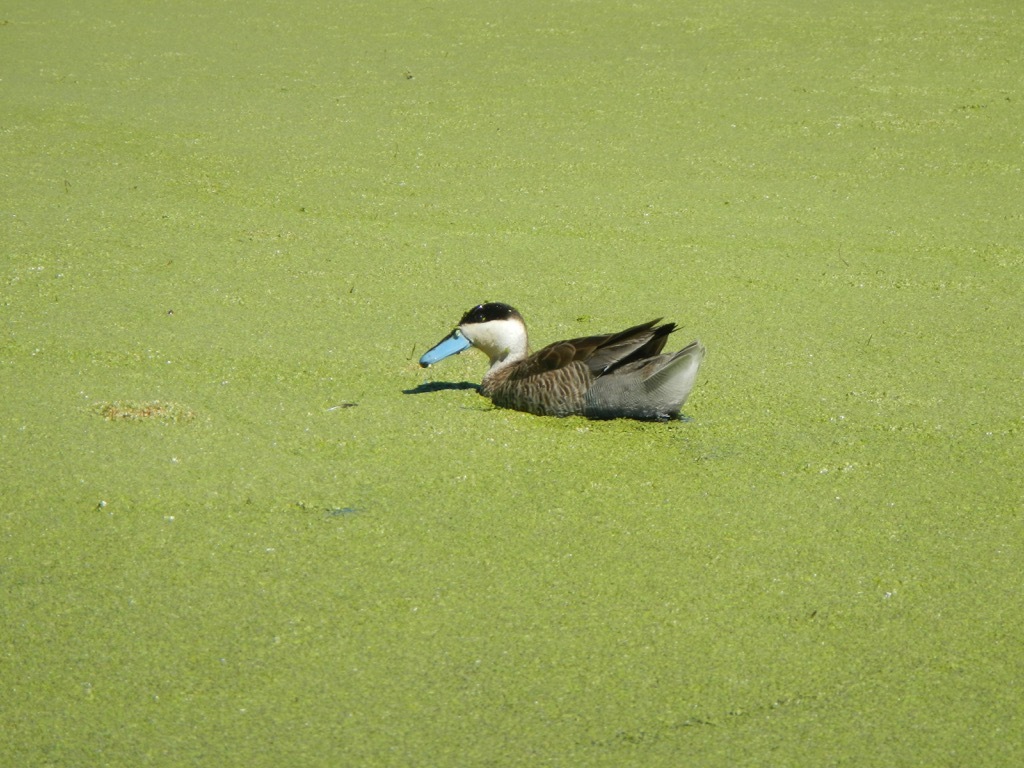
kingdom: Animalia
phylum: Chordata
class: Aves
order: Anseriformes
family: Anatidae
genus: Spatula
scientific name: Spatula puna
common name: Puna teal
